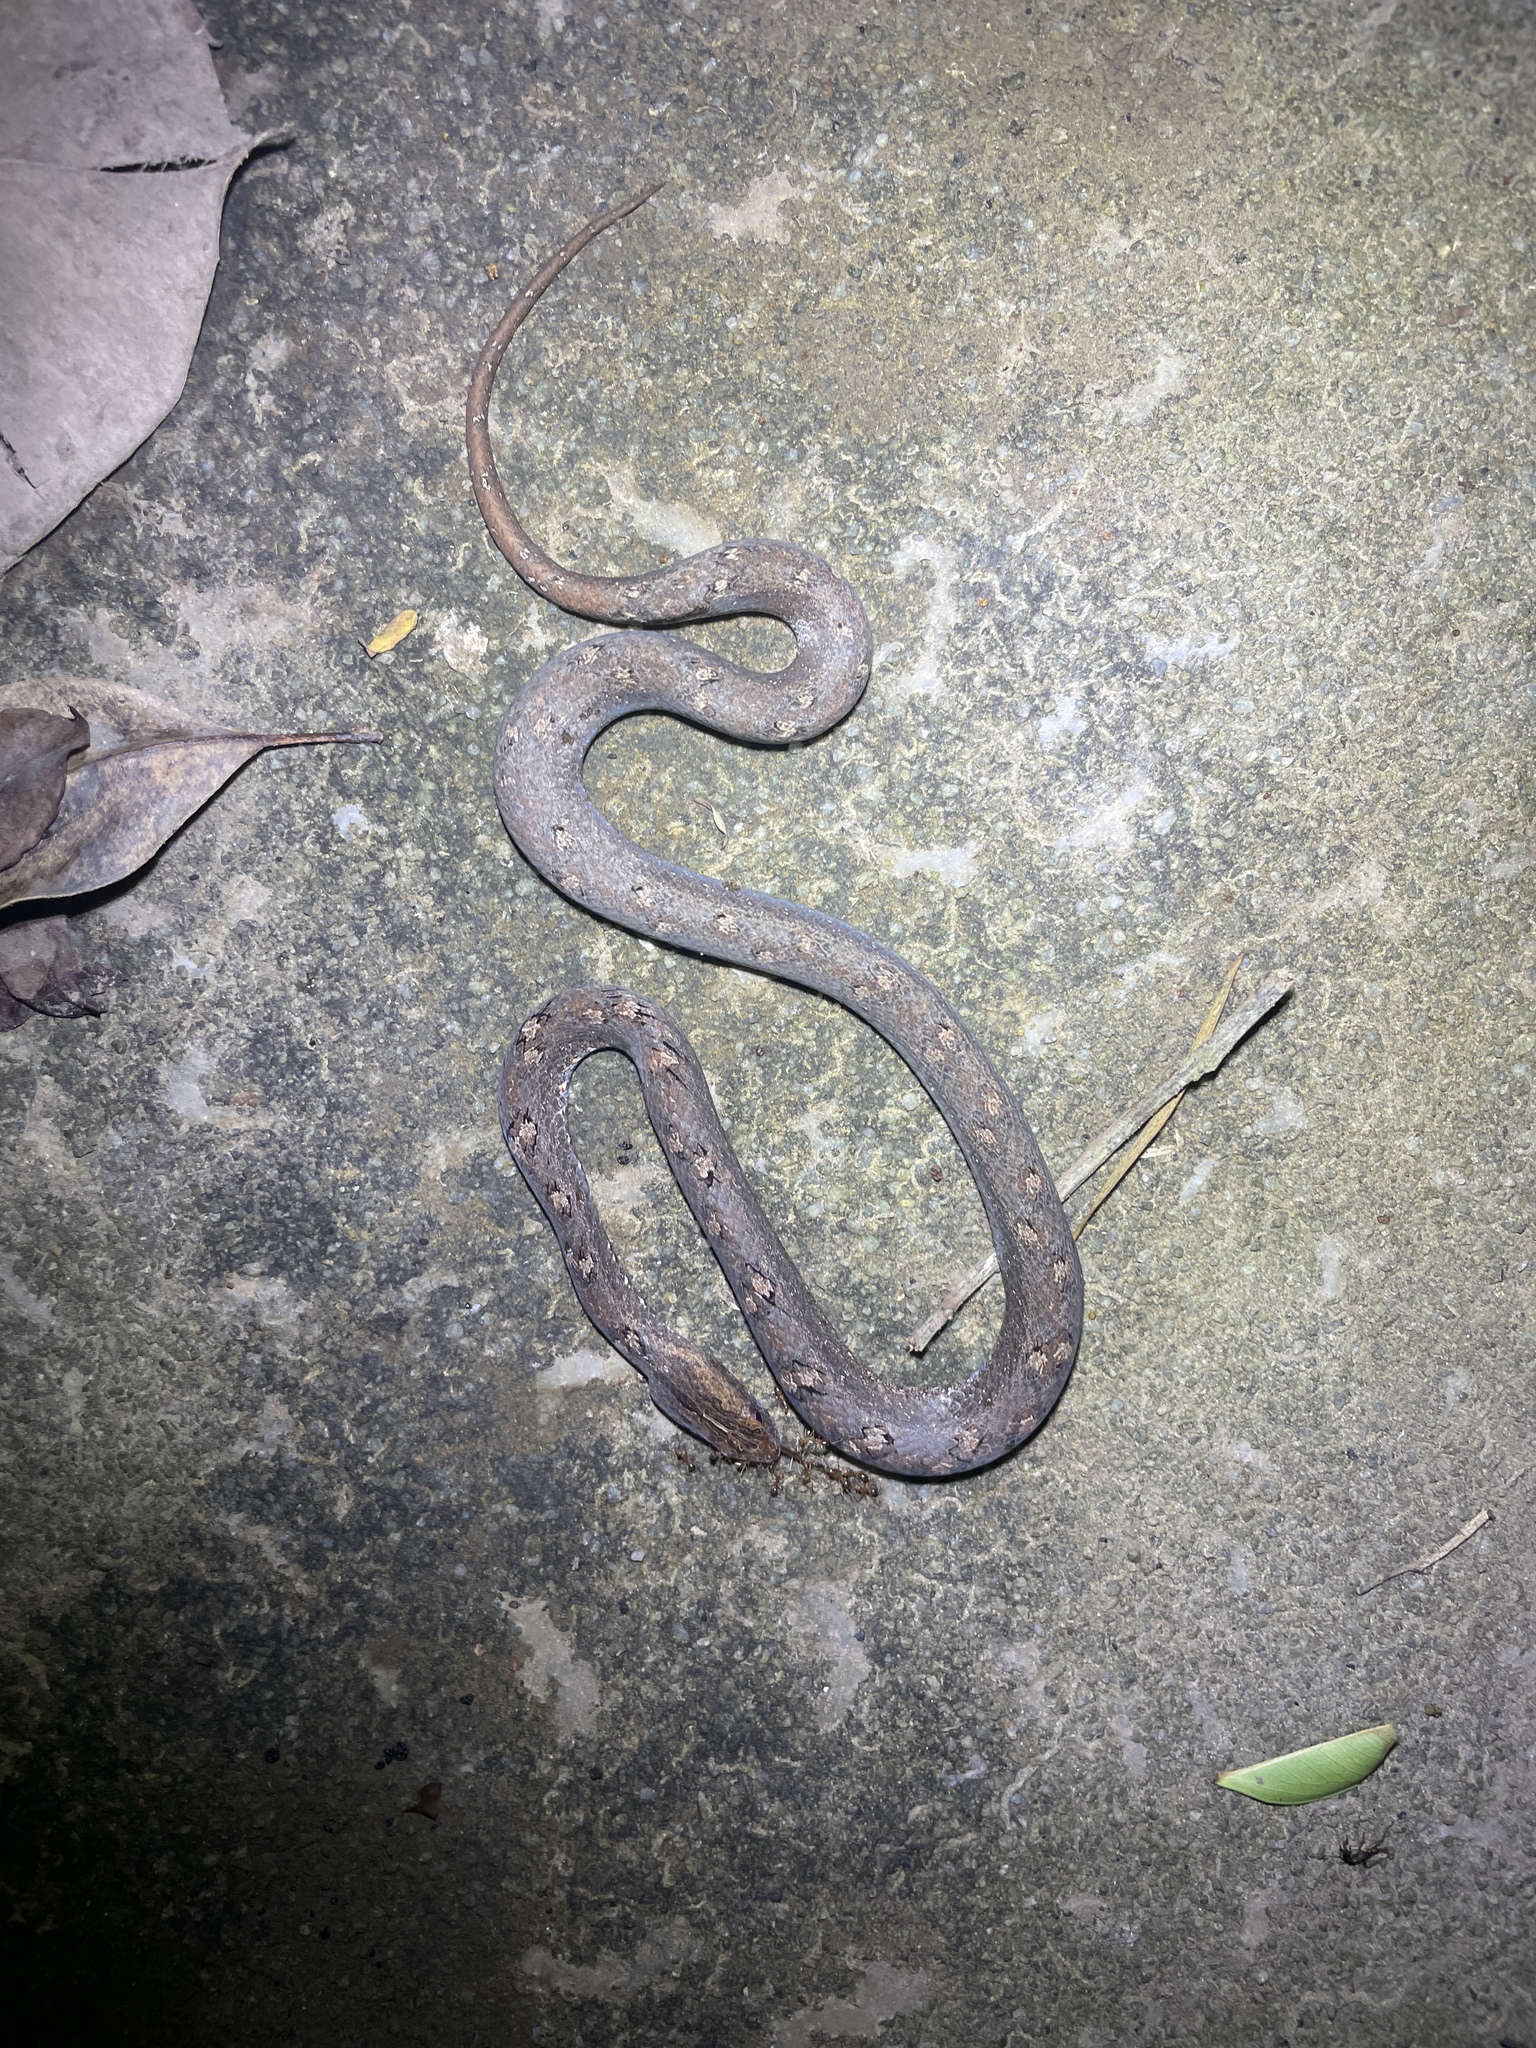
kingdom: Animalia
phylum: Chordata
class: Squamata
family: Pseudaspididae
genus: Psammodynastes
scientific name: Psammodynastes pulverulentus
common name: Common mock viper
